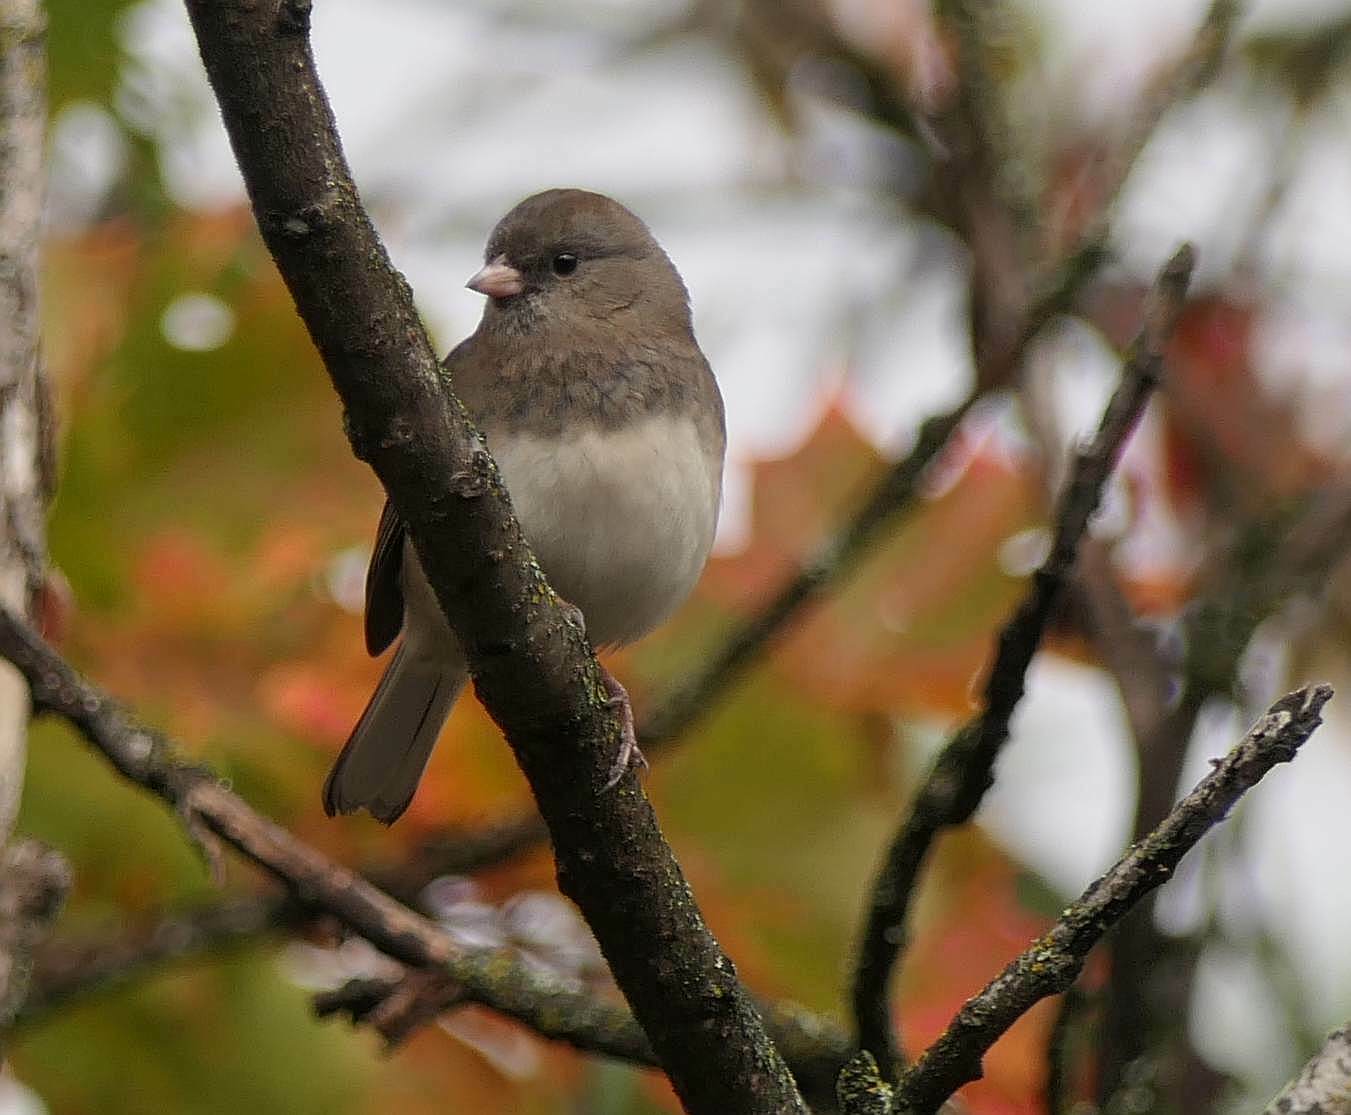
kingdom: Animalia
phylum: Chordata
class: Aves
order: Passeriformes
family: Passerellidae
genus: Junco
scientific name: Junco hyemalis
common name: Dark-eyed junco
